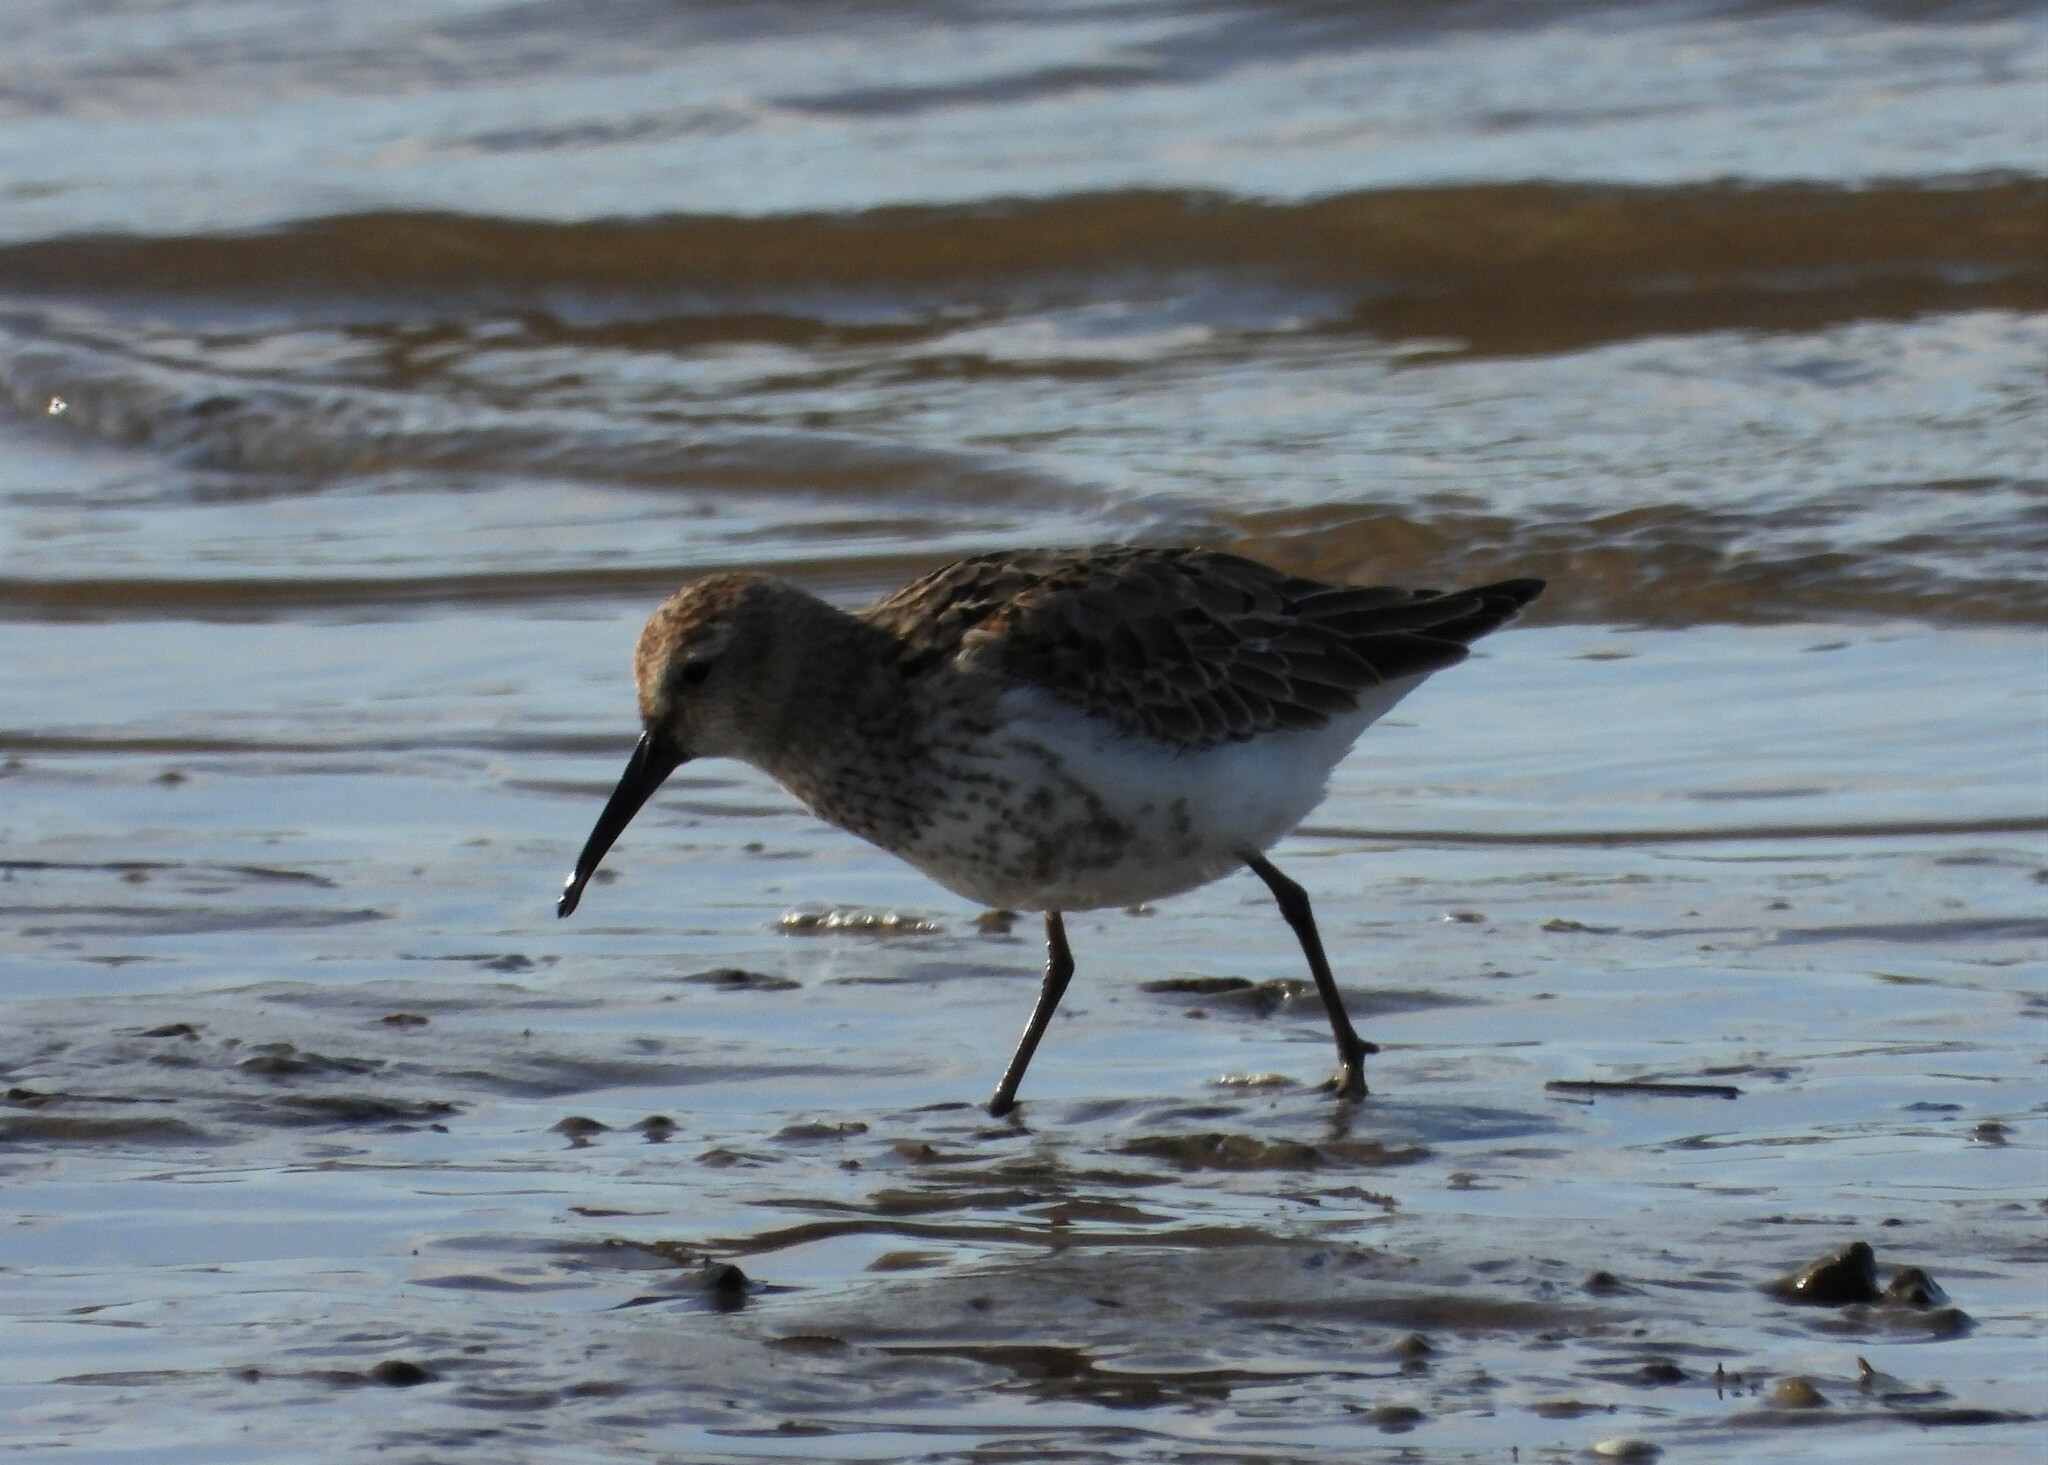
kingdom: Animalia
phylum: Chordata
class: Aves
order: Charadriiformes
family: Scolopacidae
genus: Calidris
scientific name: Calidris alpina
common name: Dunlin
